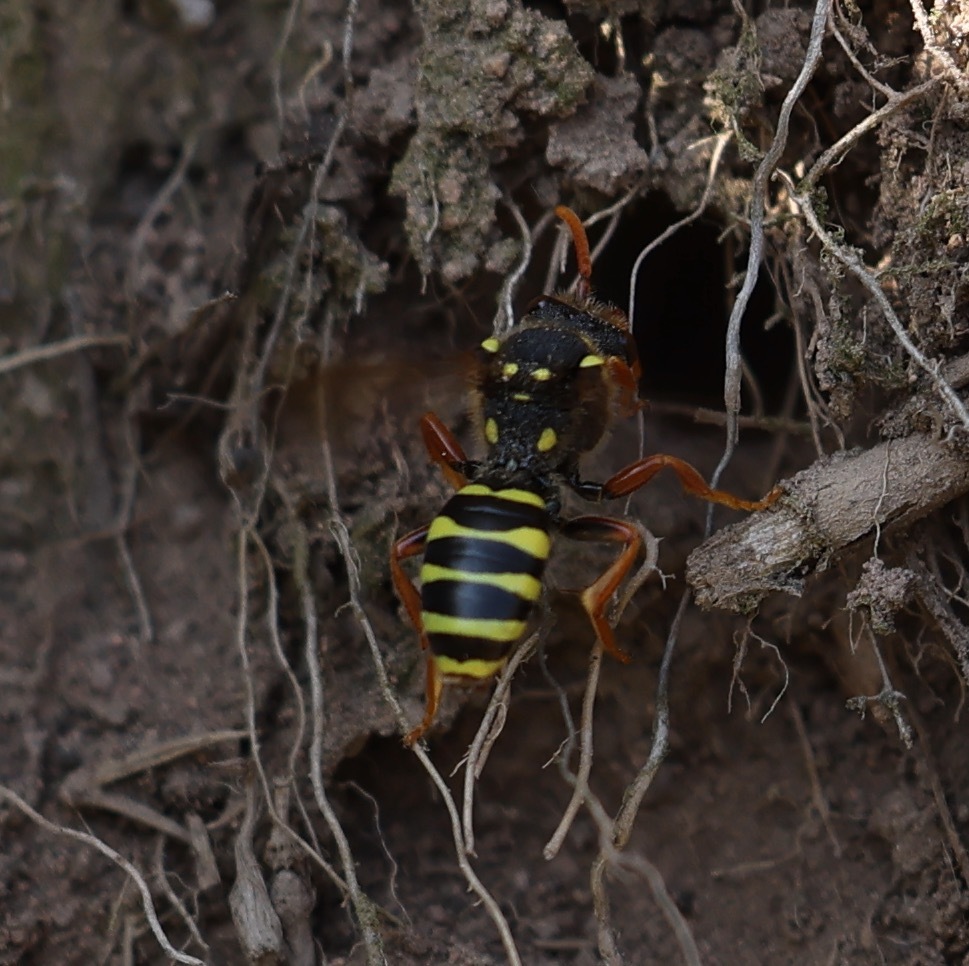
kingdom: Animalia
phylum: Arthropoda
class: Insecta
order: Hymenoptera
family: Apidae
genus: Nomada
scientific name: Nomada goodeniana
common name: Gooden's nomad bee
